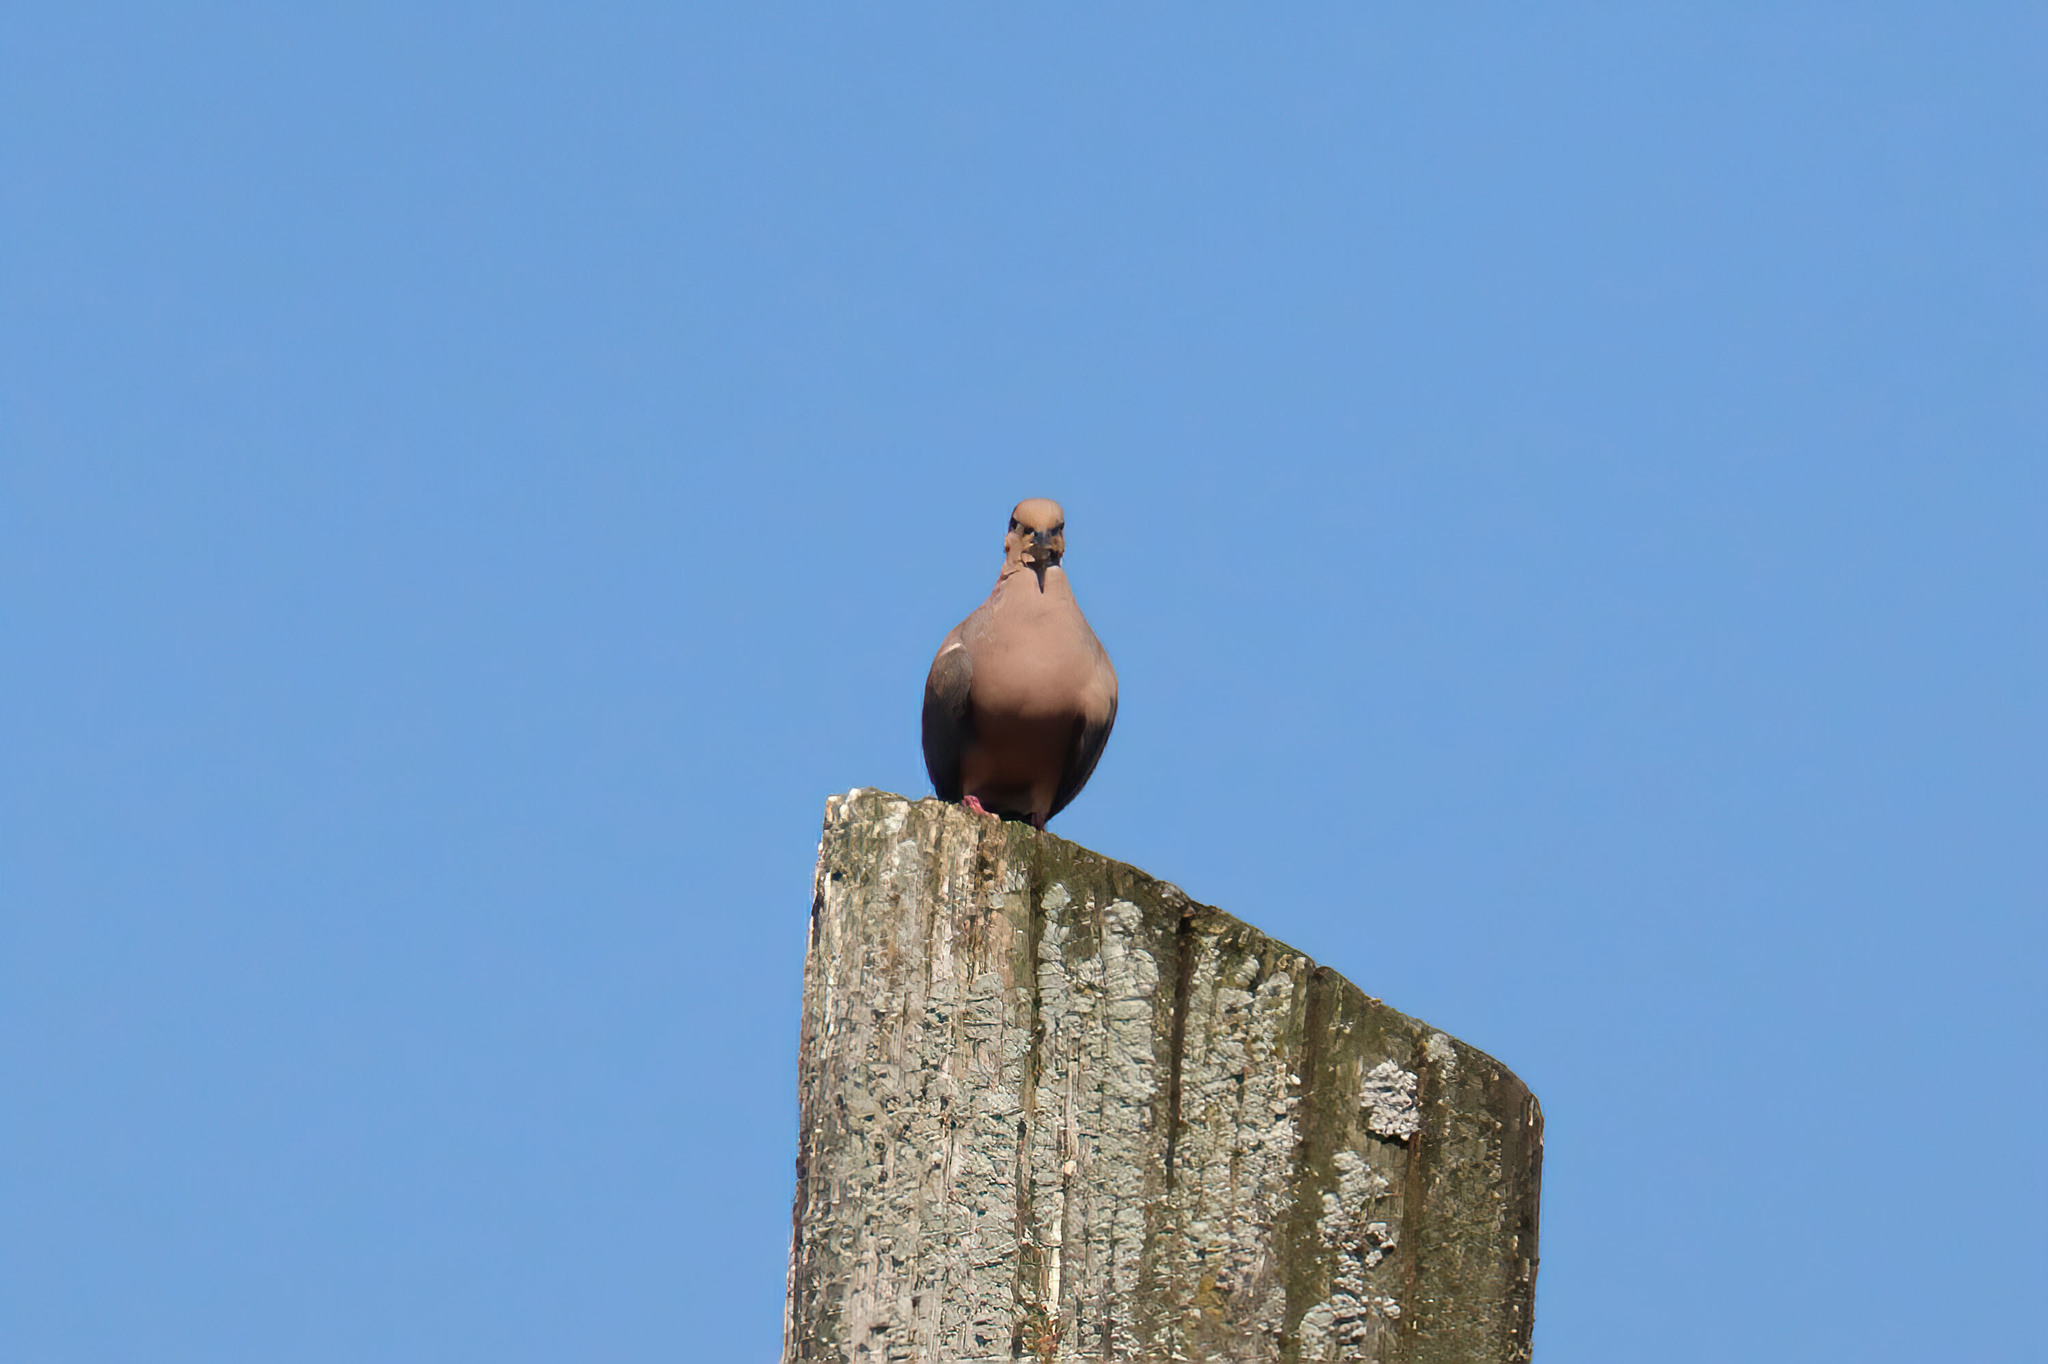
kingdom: Animalia
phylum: Chordata
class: Aves
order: Columbiformes
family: Columbidae
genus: Zenaida
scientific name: Zenaida macroura
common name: Mourning dove
